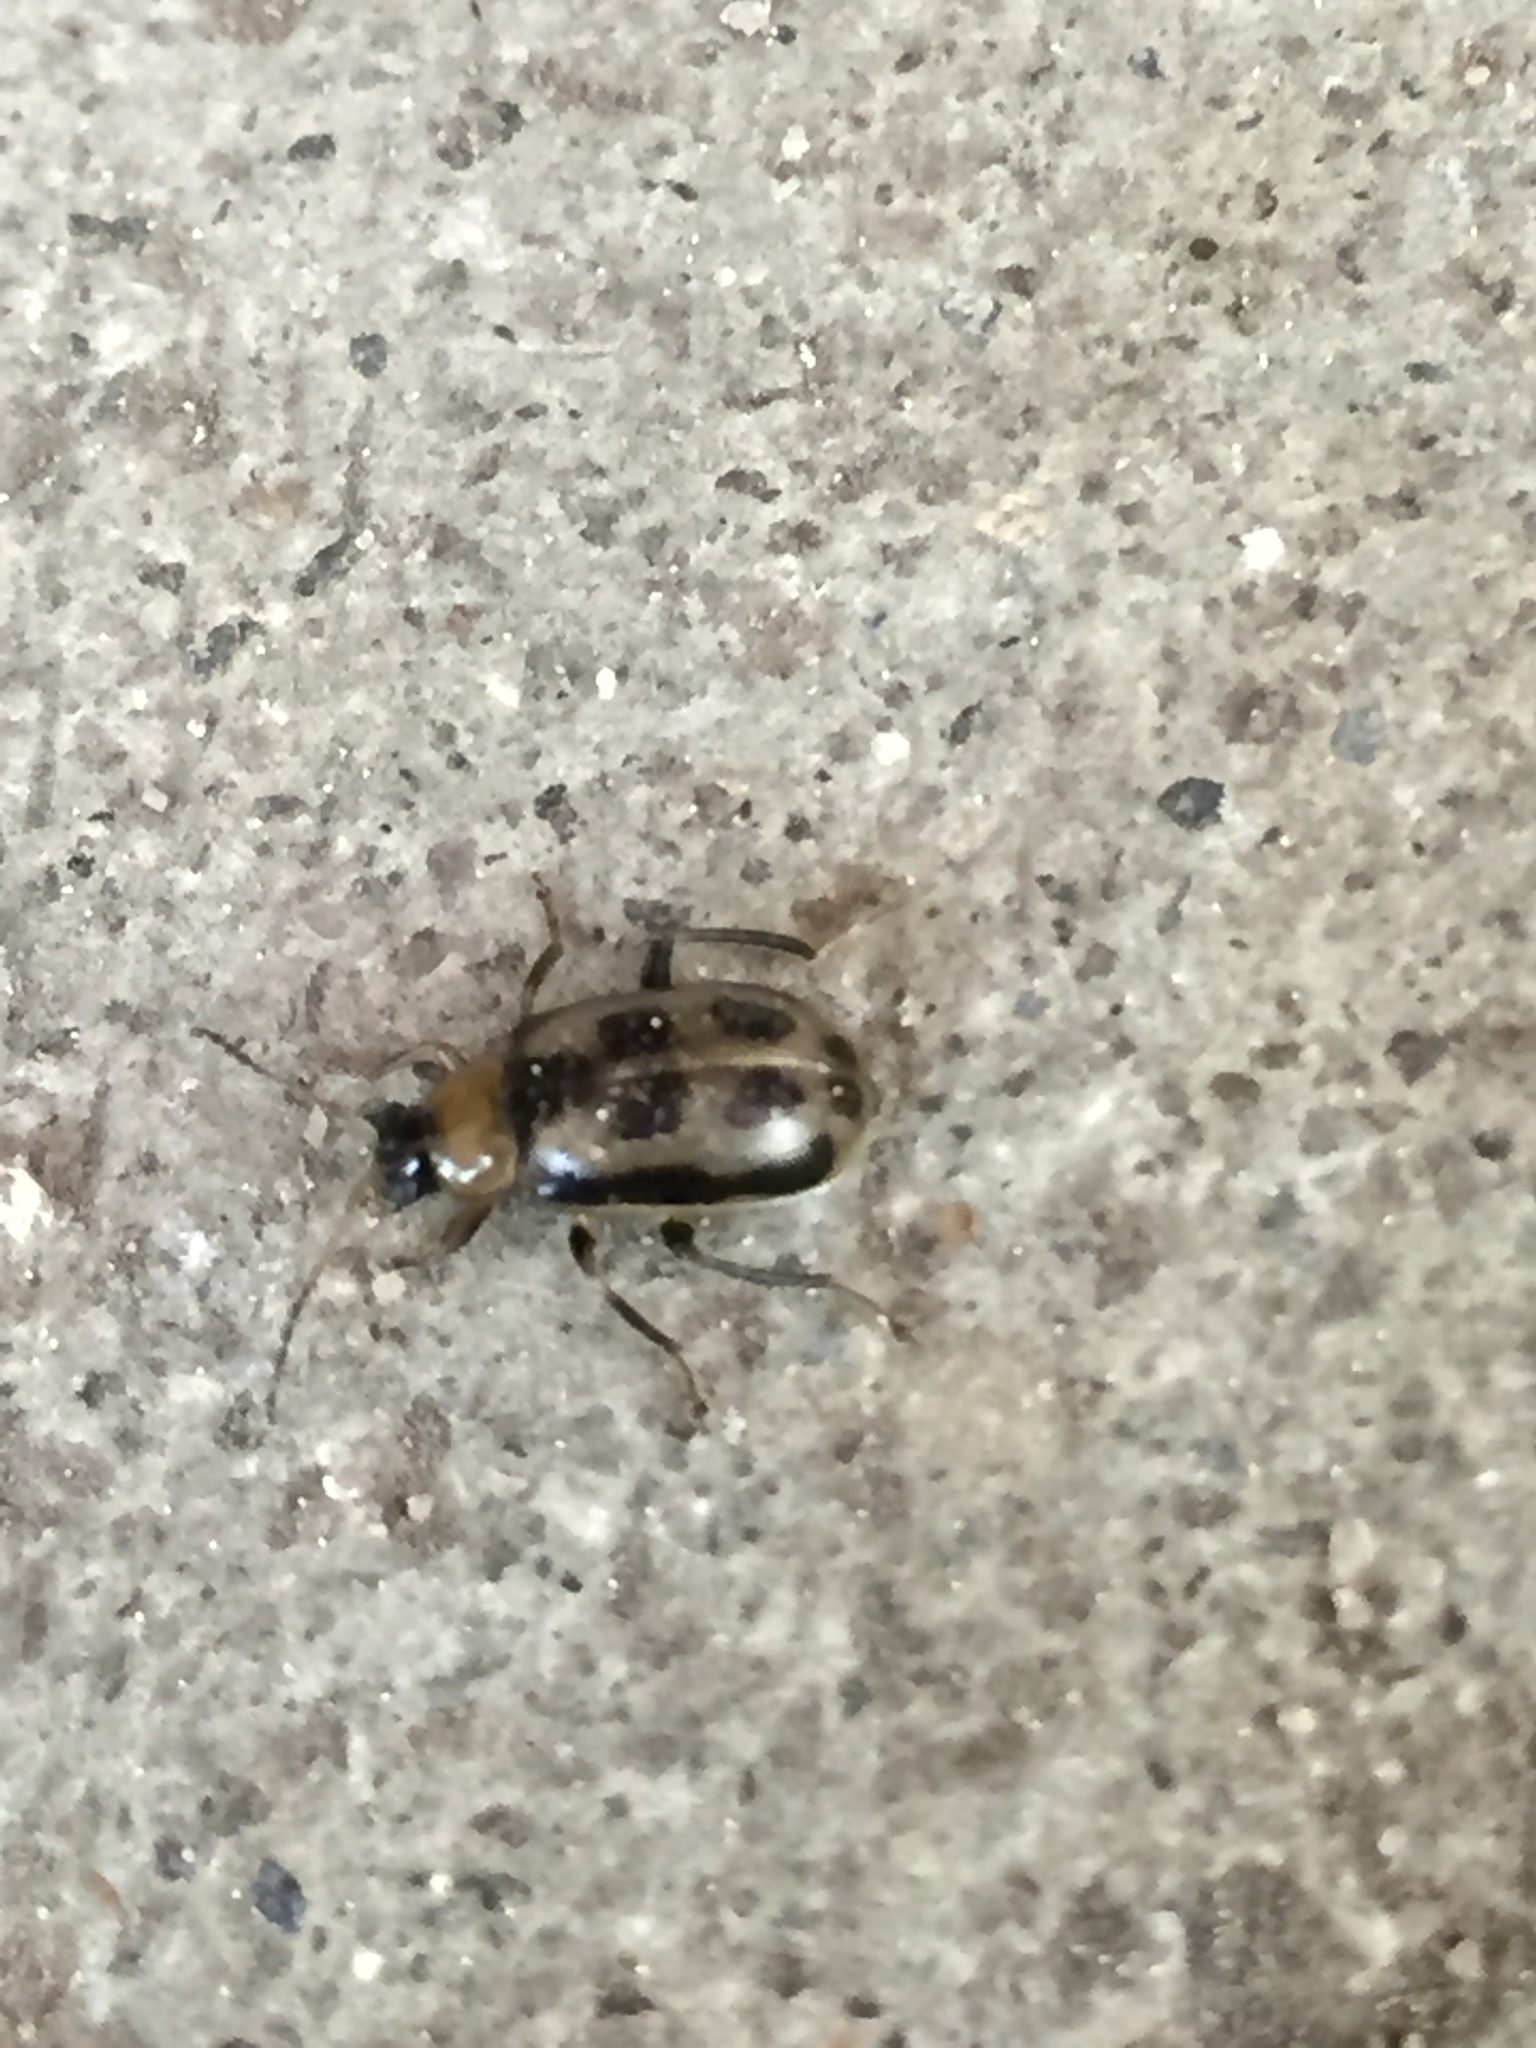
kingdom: Animalia
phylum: Arthropoda
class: Insecta
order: Coleoptera
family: Chrysomelidae
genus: Cerotoma
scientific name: Cerotoma trifurcata
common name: Bean leaf beetle
